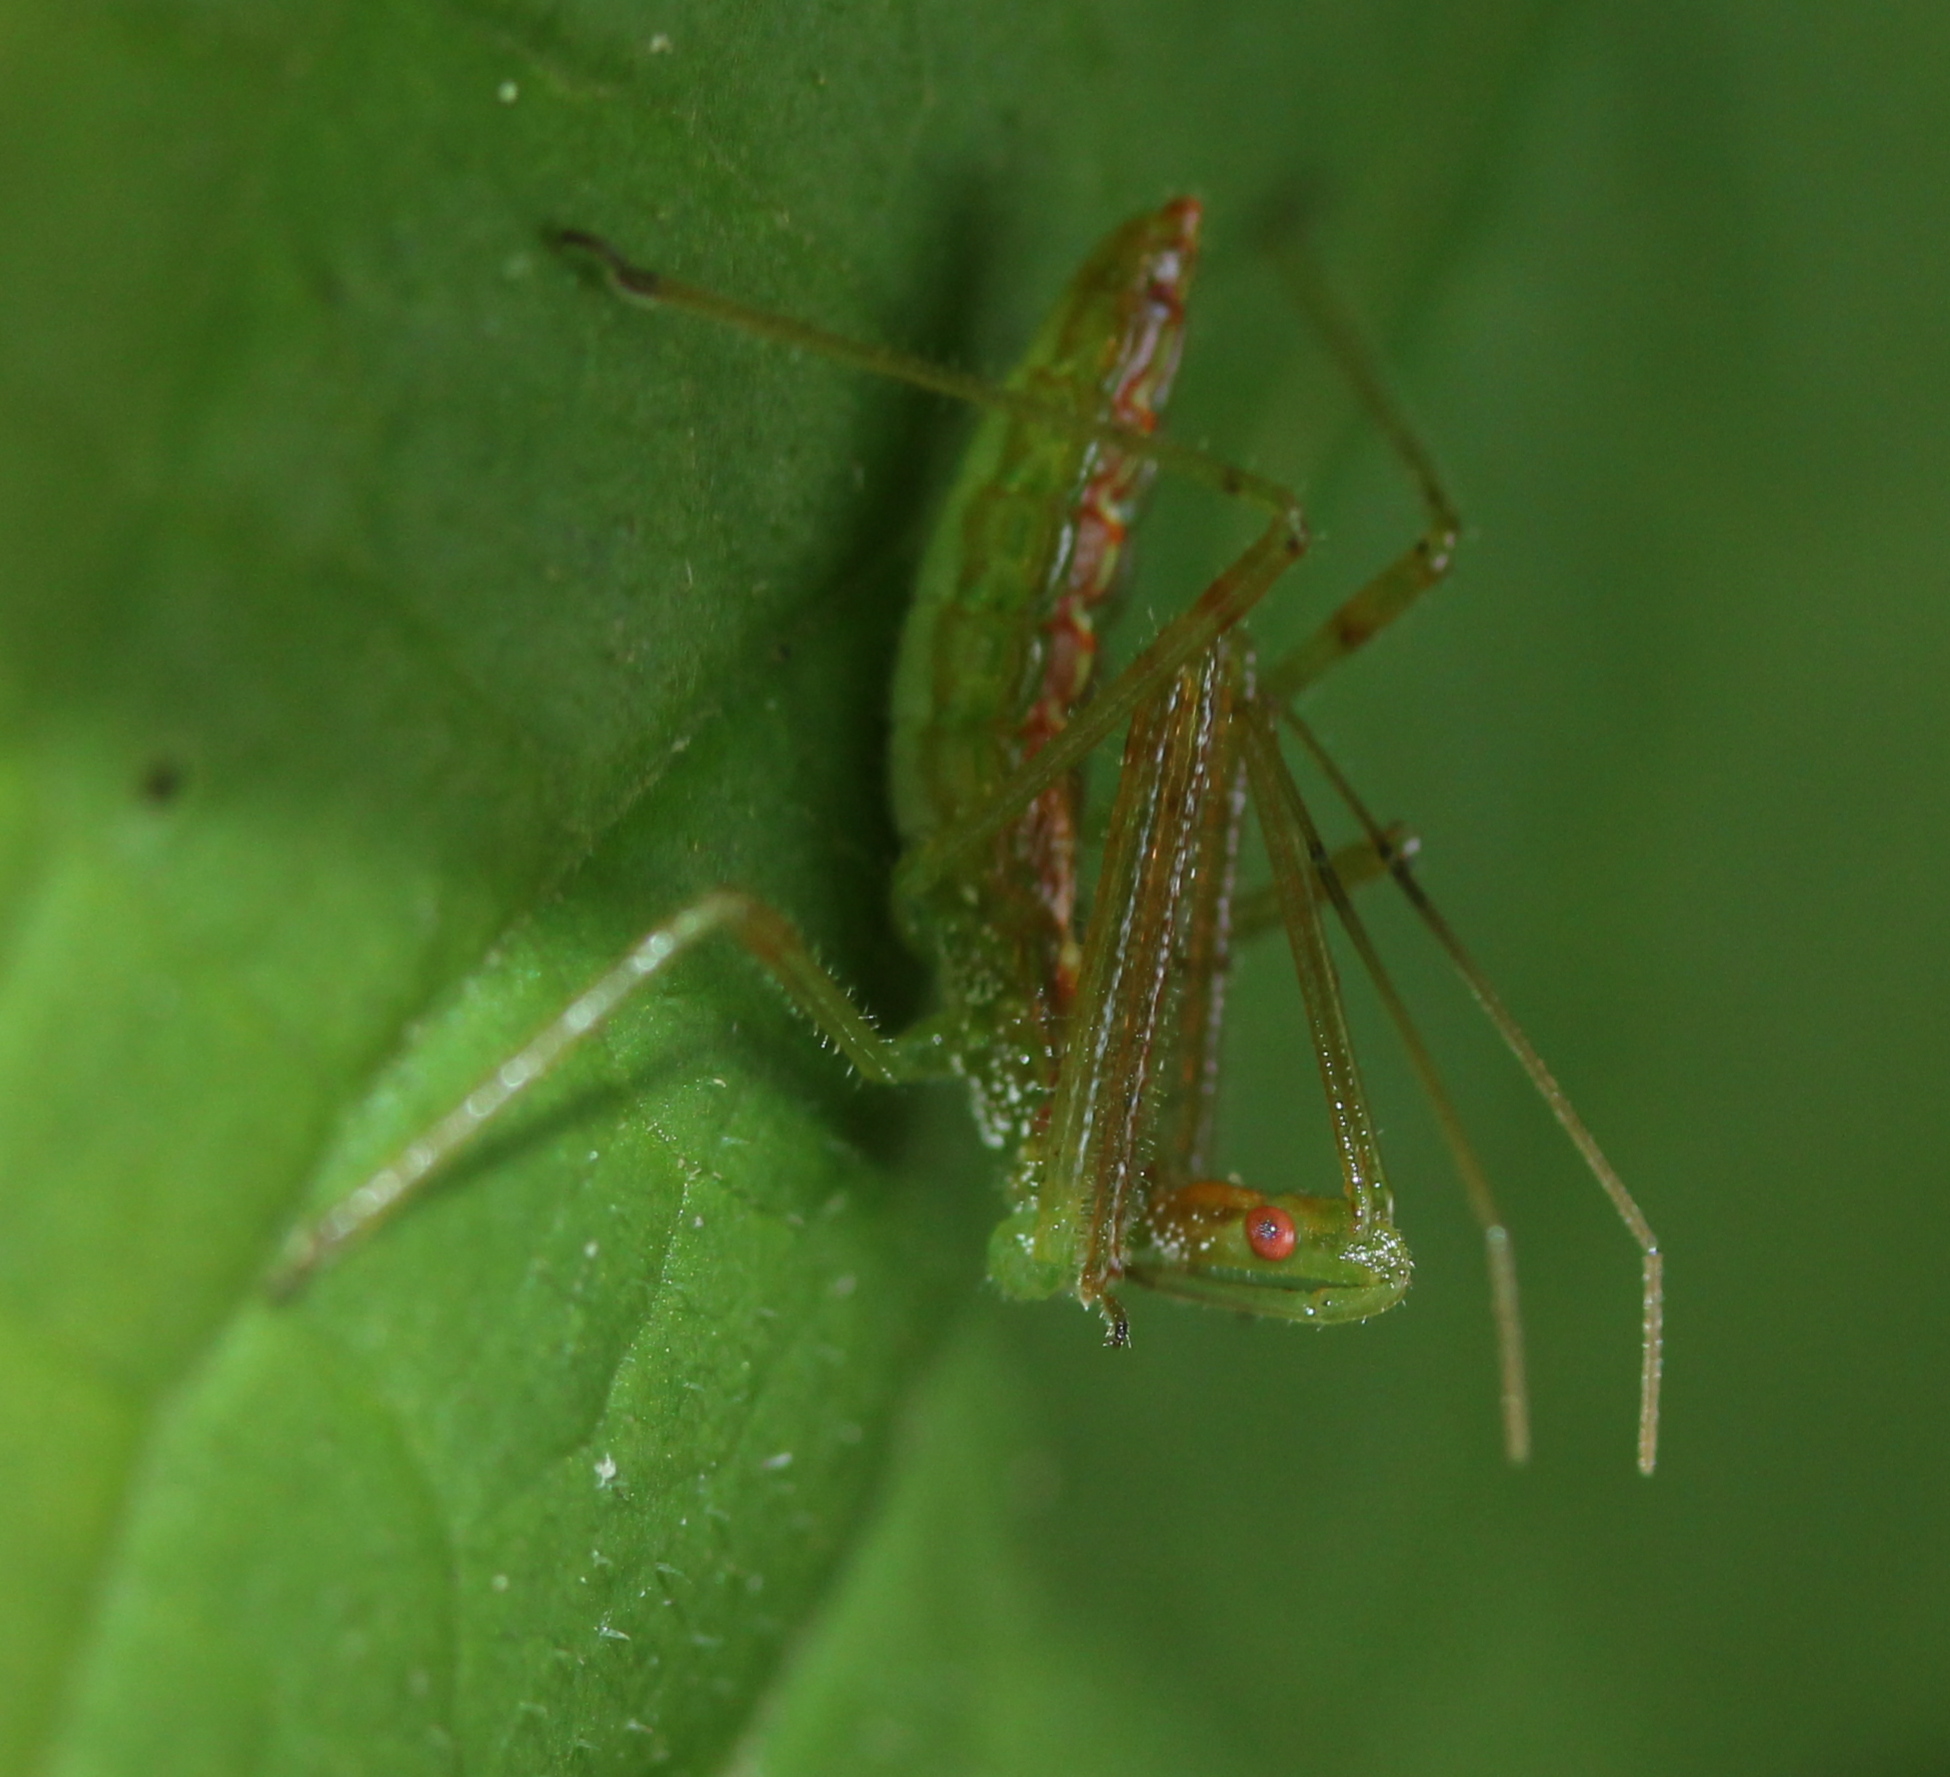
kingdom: Animalia
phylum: Arthropoda
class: Insecta
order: Hemiptera
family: Reduviidae
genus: Zelus
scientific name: Zelus luridus
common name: Pale green assassin bug
